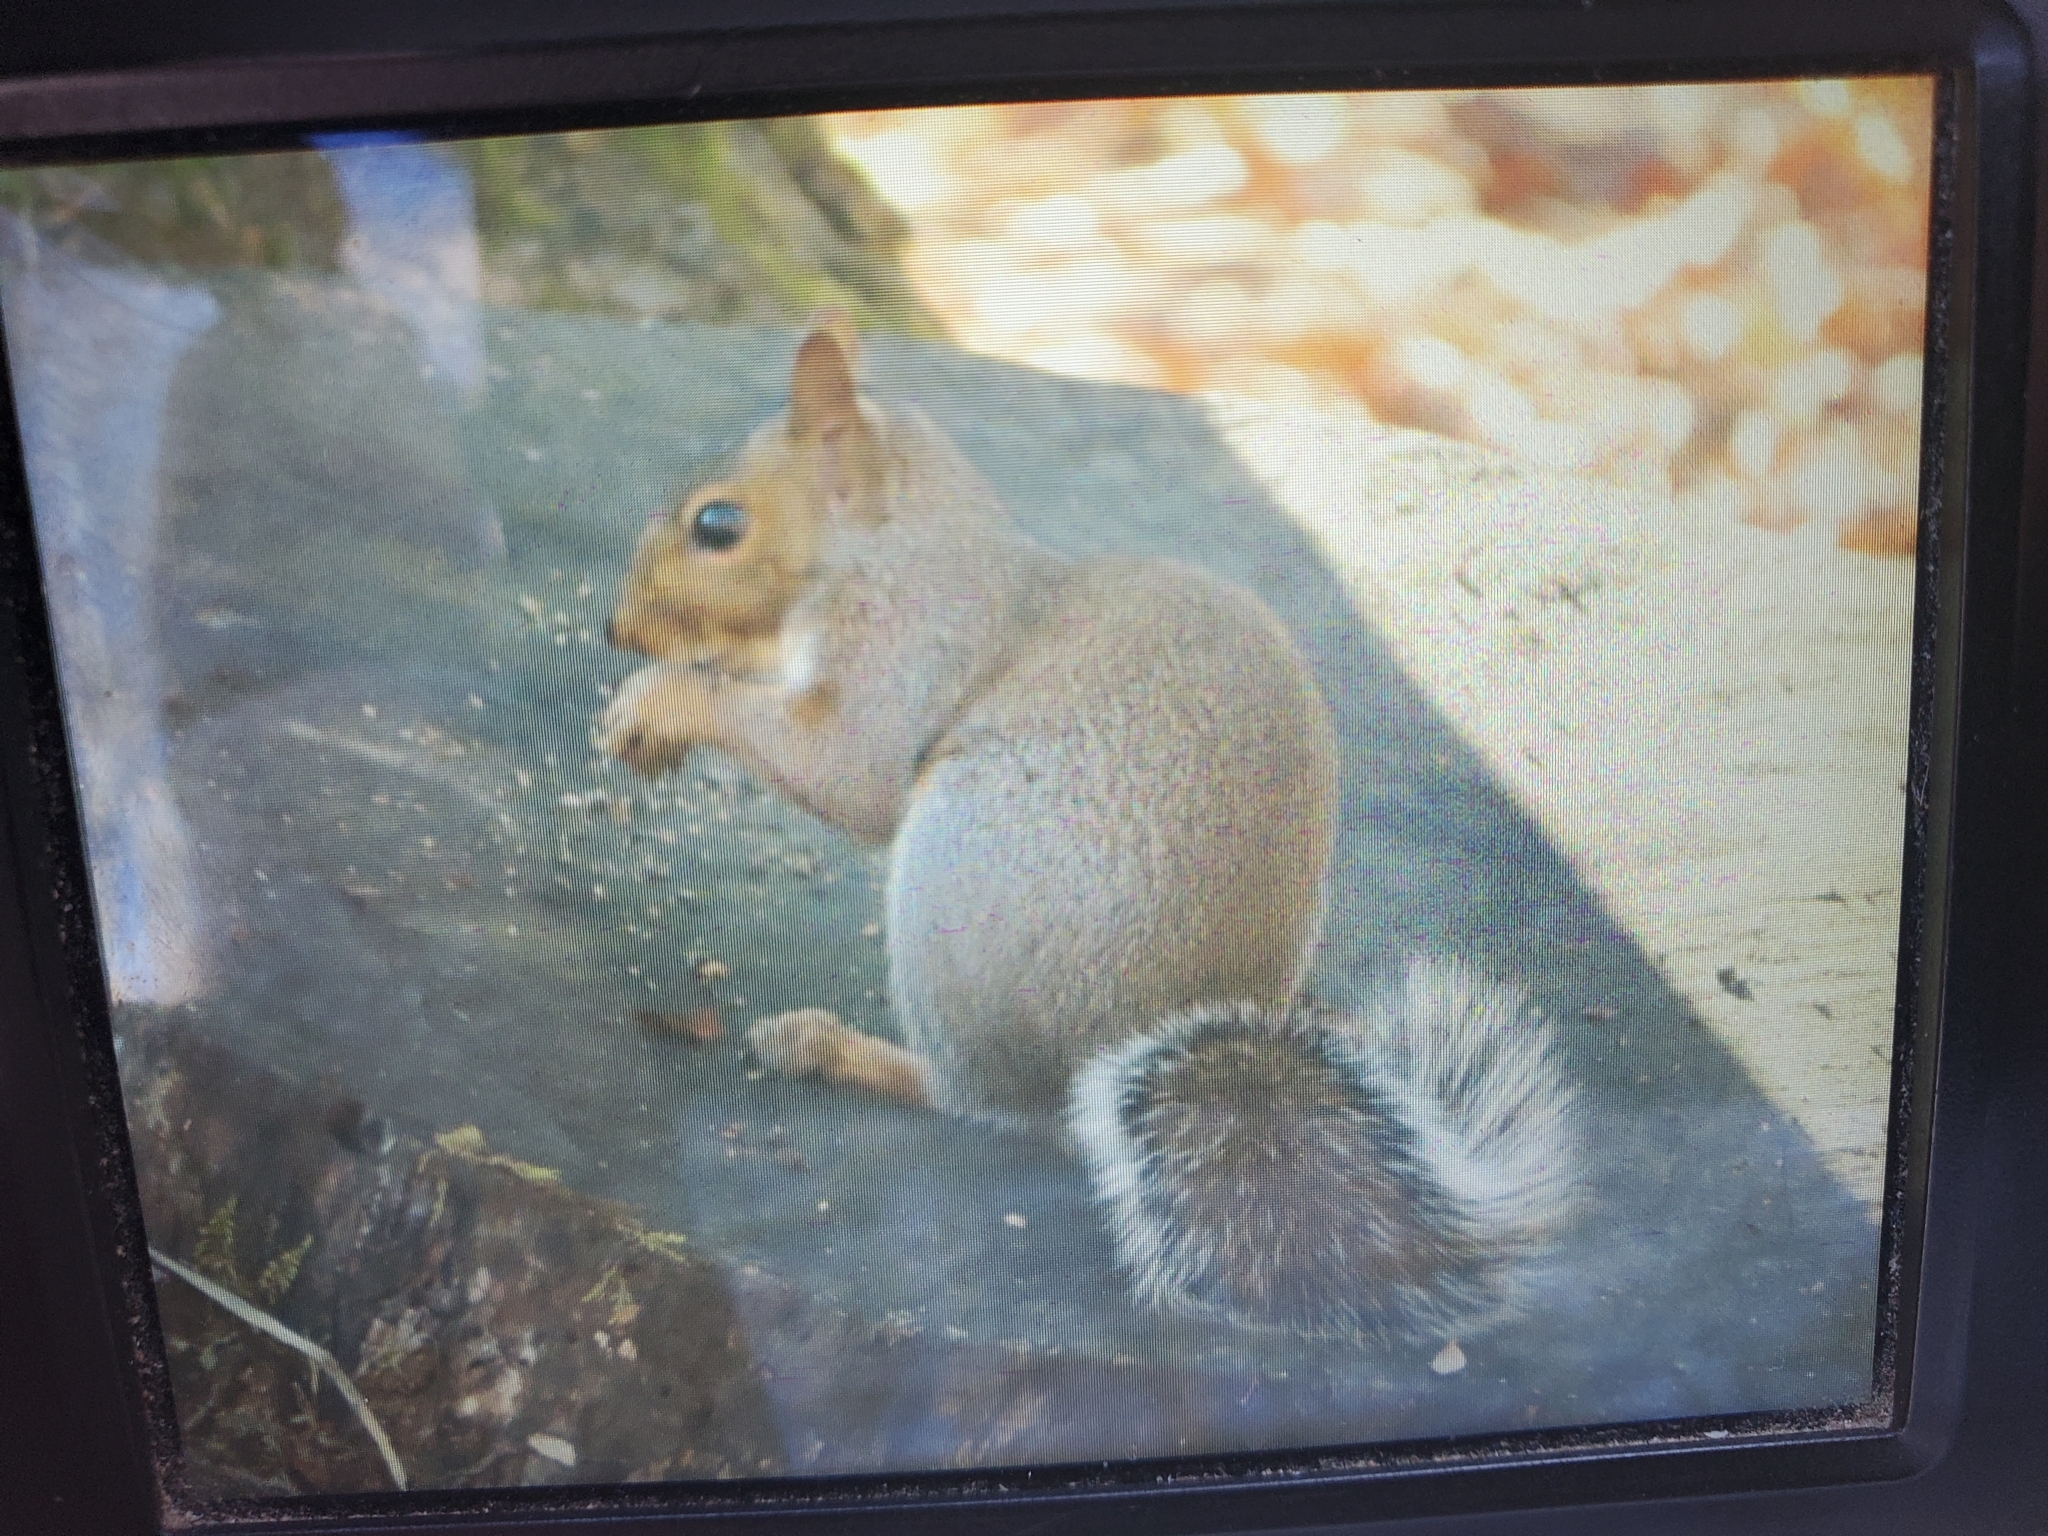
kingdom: Animalia
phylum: Chordata
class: Mammalia
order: Rodentia
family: Sciuridae
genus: Sciurus
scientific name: Sciurus carolinensis
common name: Eastern gray squirrel
